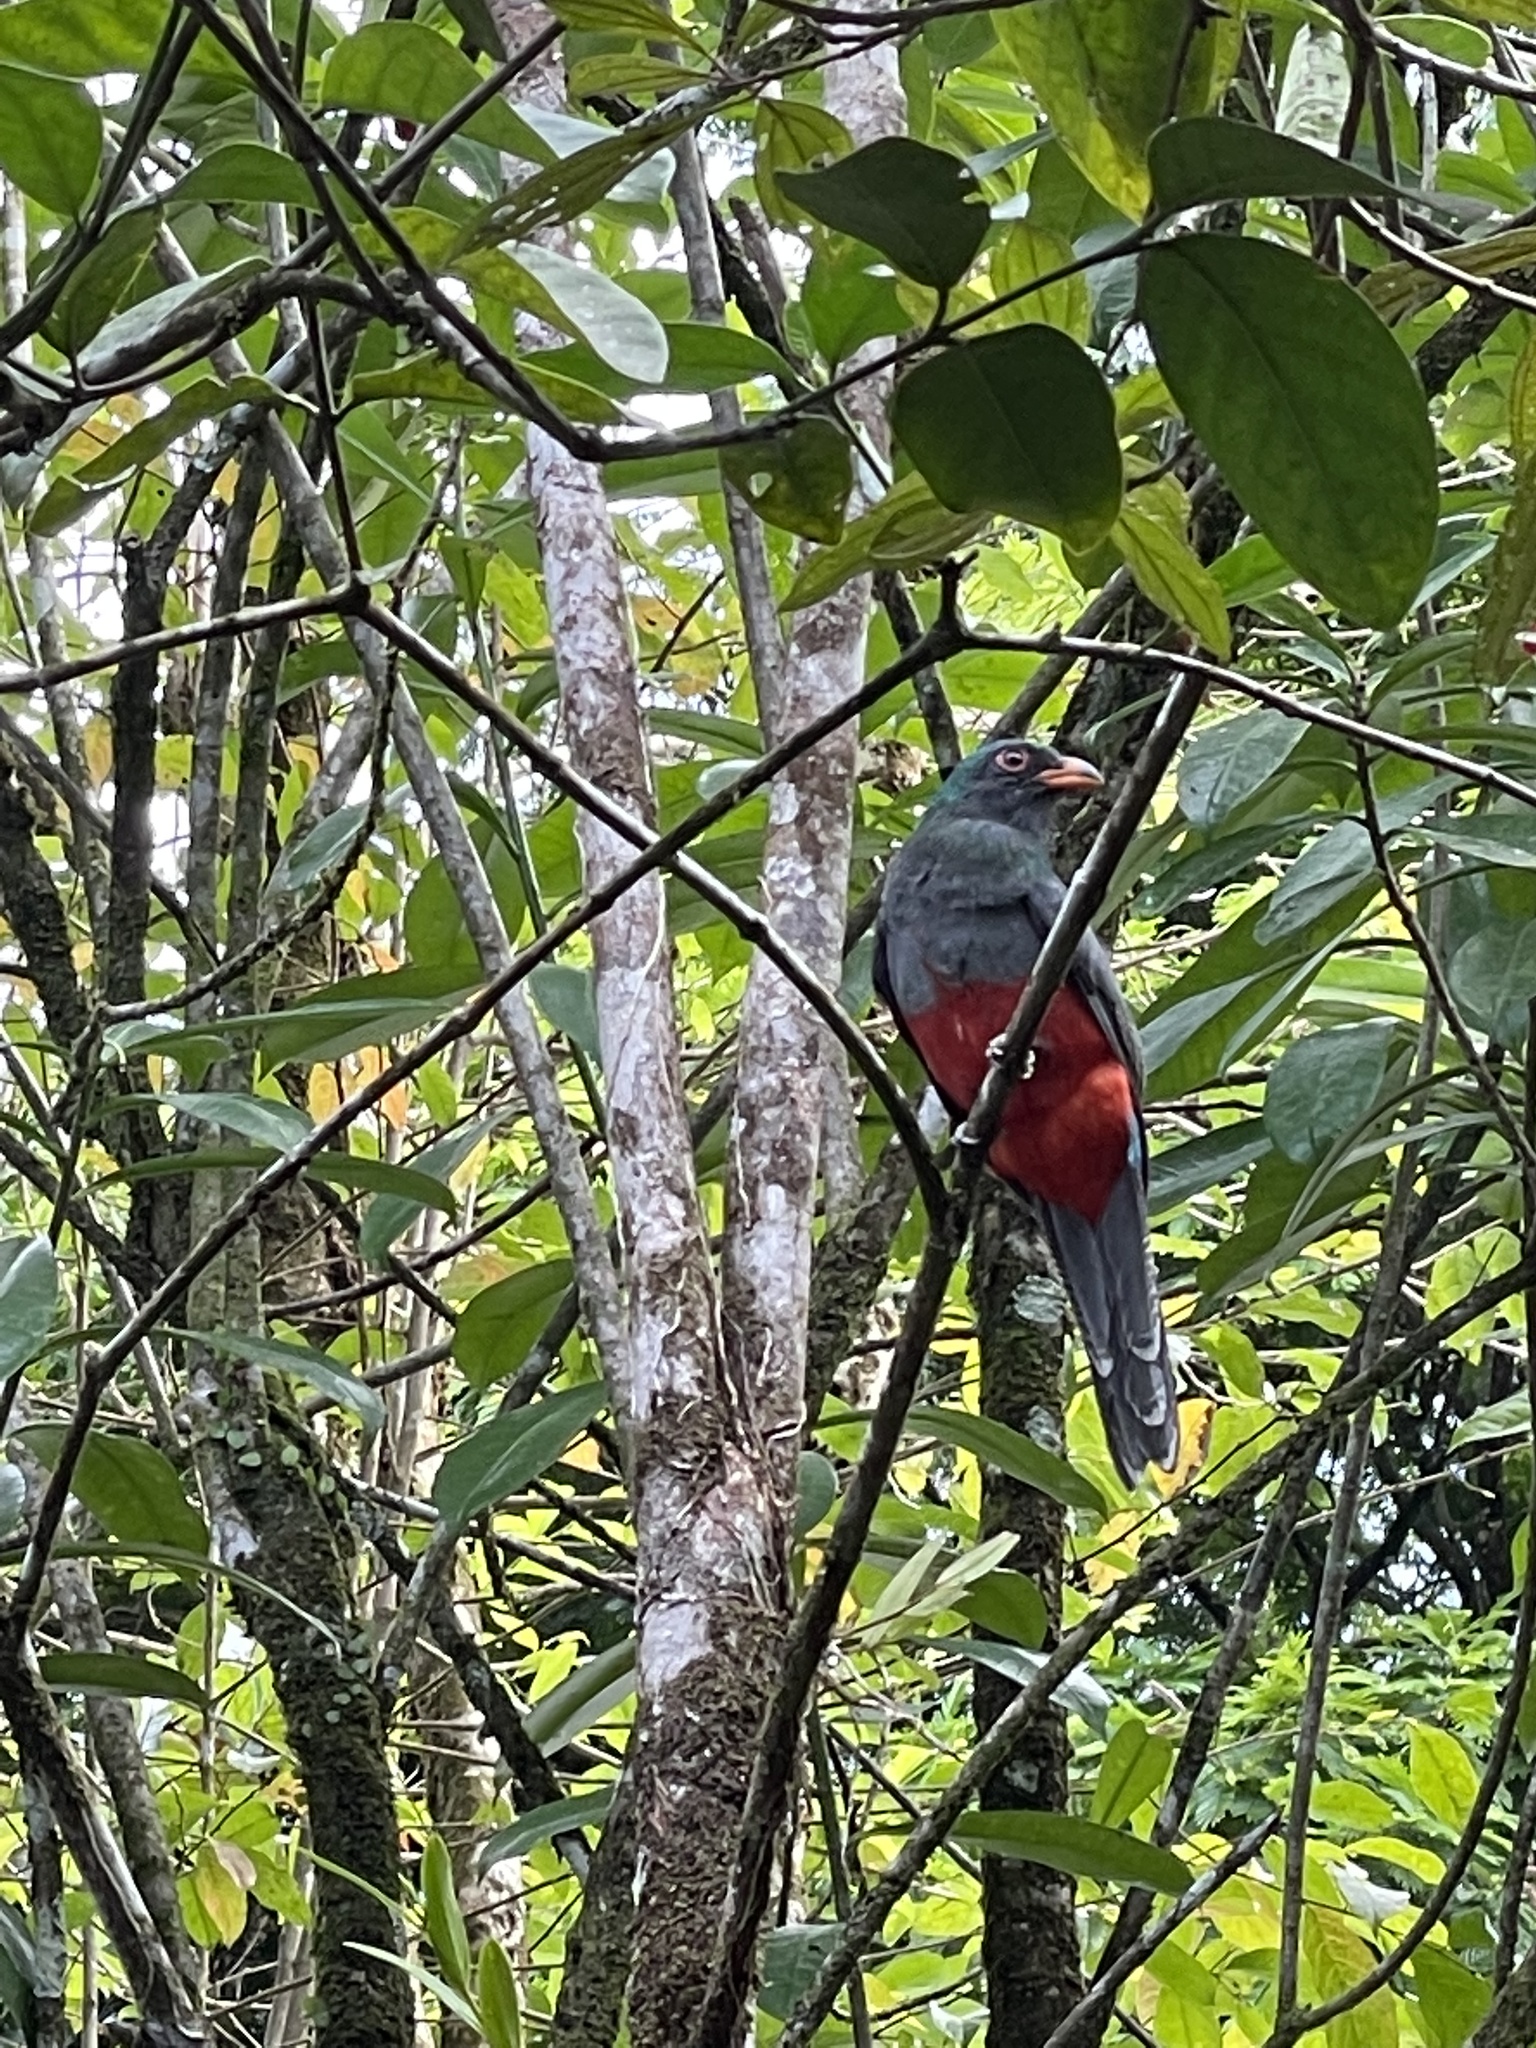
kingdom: Animalia
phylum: Chordata
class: Aves
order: Trogoniformes
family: Trogonidae
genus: Trogon
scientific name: Trogon massena
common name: Slaty-tailed trogon
